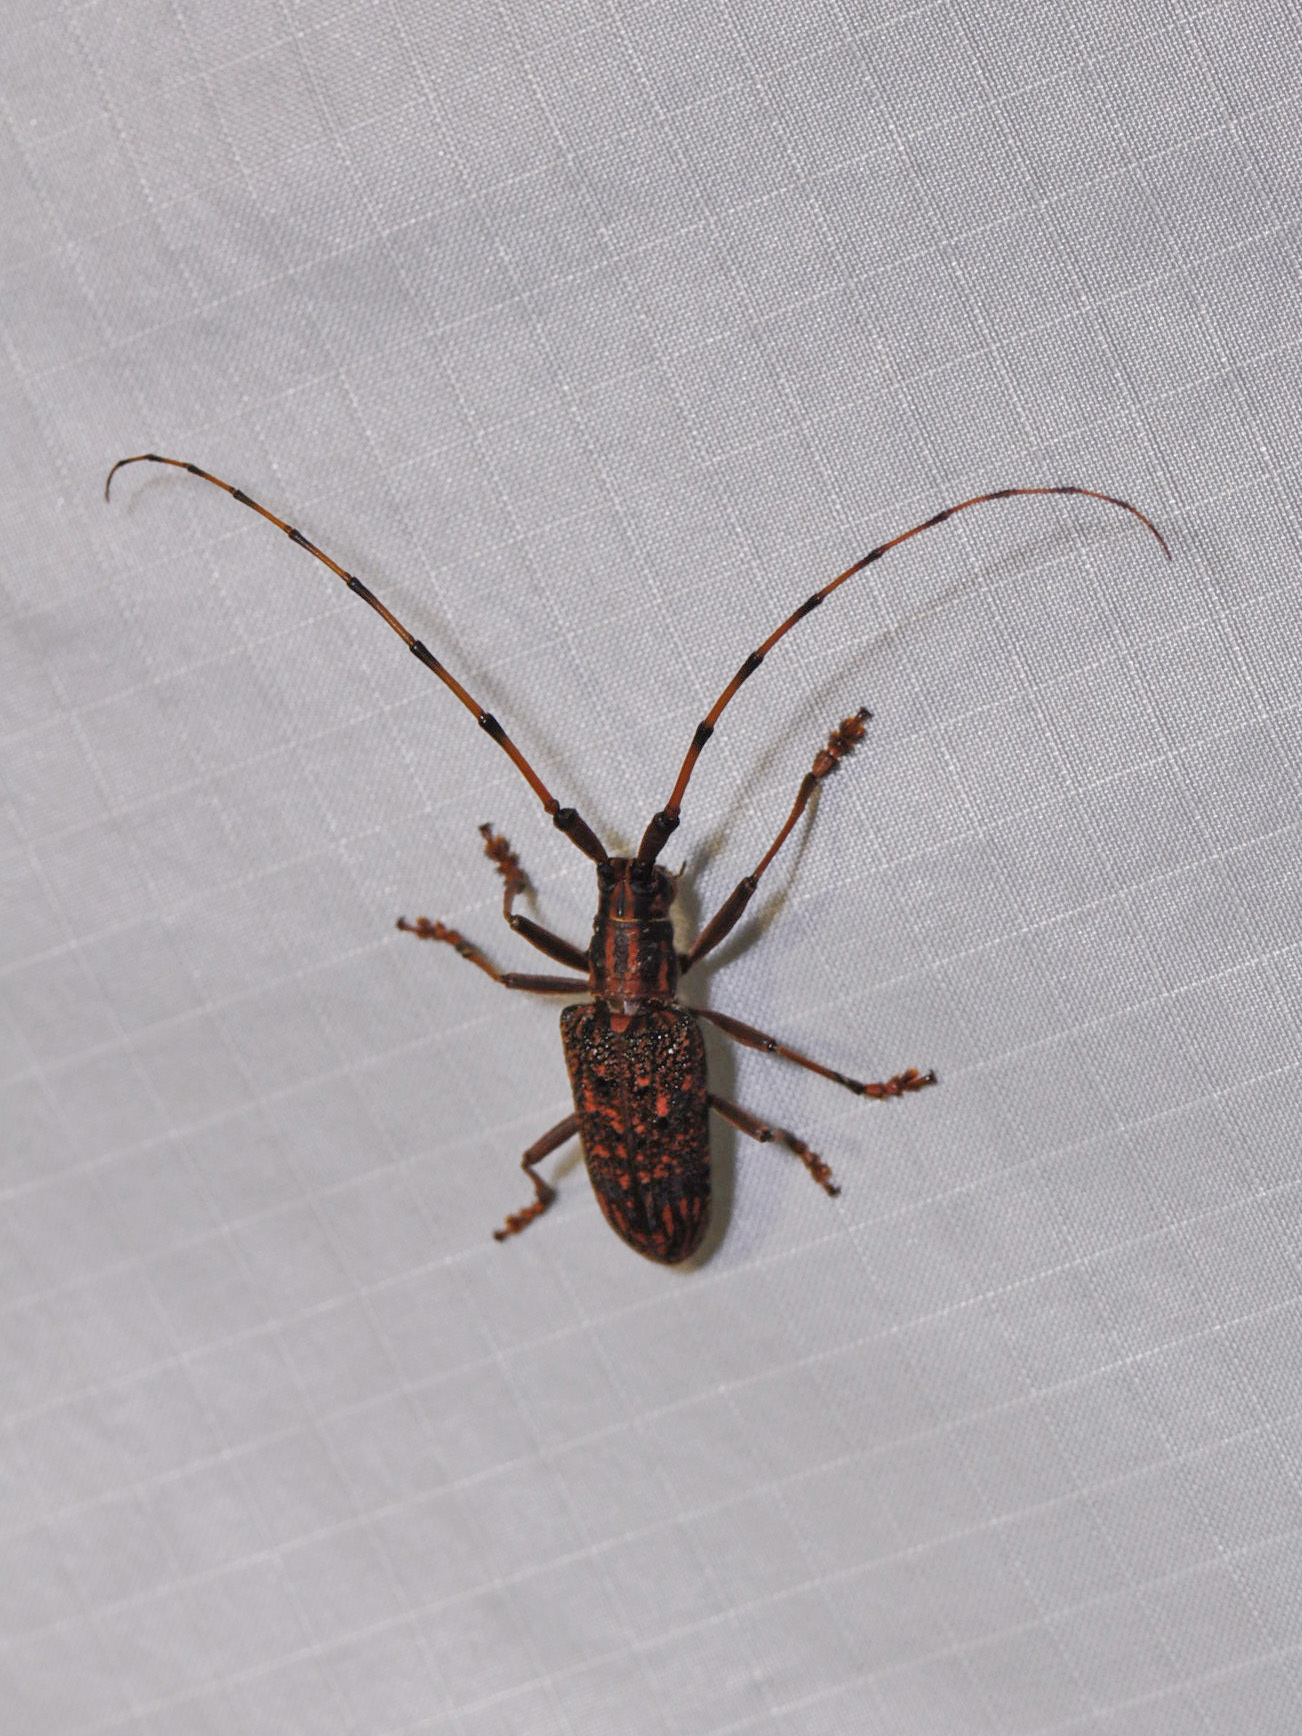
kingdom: Animalia
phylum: Arthropoda
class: Insecta
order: Coleoptera
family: Cerambycidae
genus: Pharsalia
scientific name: Pharsalia subgemmata
